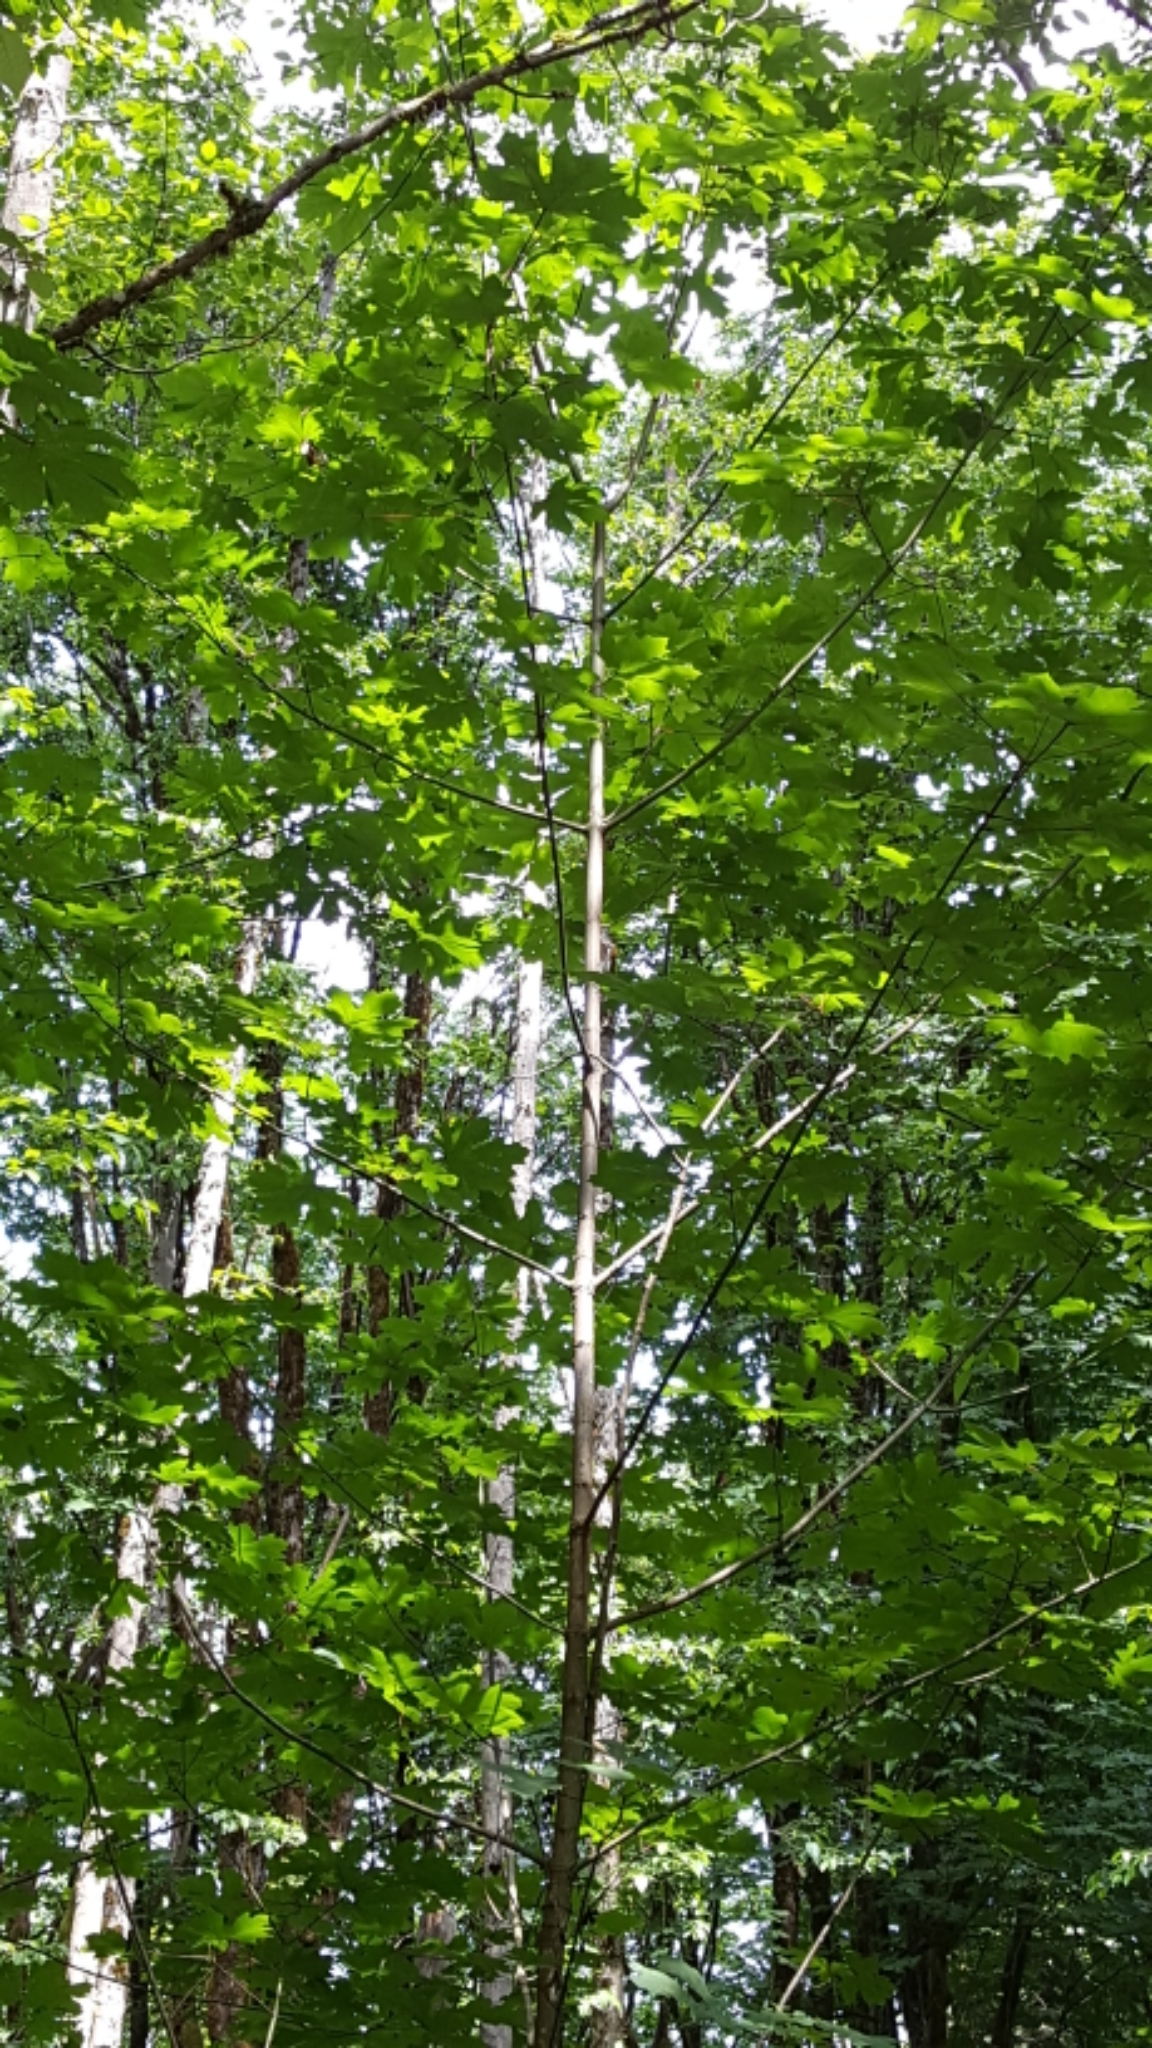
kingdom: Plantae
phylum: Tracheophyta
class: Magnoliopsida
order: Sapindales
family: Sapindaceae
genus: Acer
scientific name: Acer macrophyllum
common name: Oregon maple
